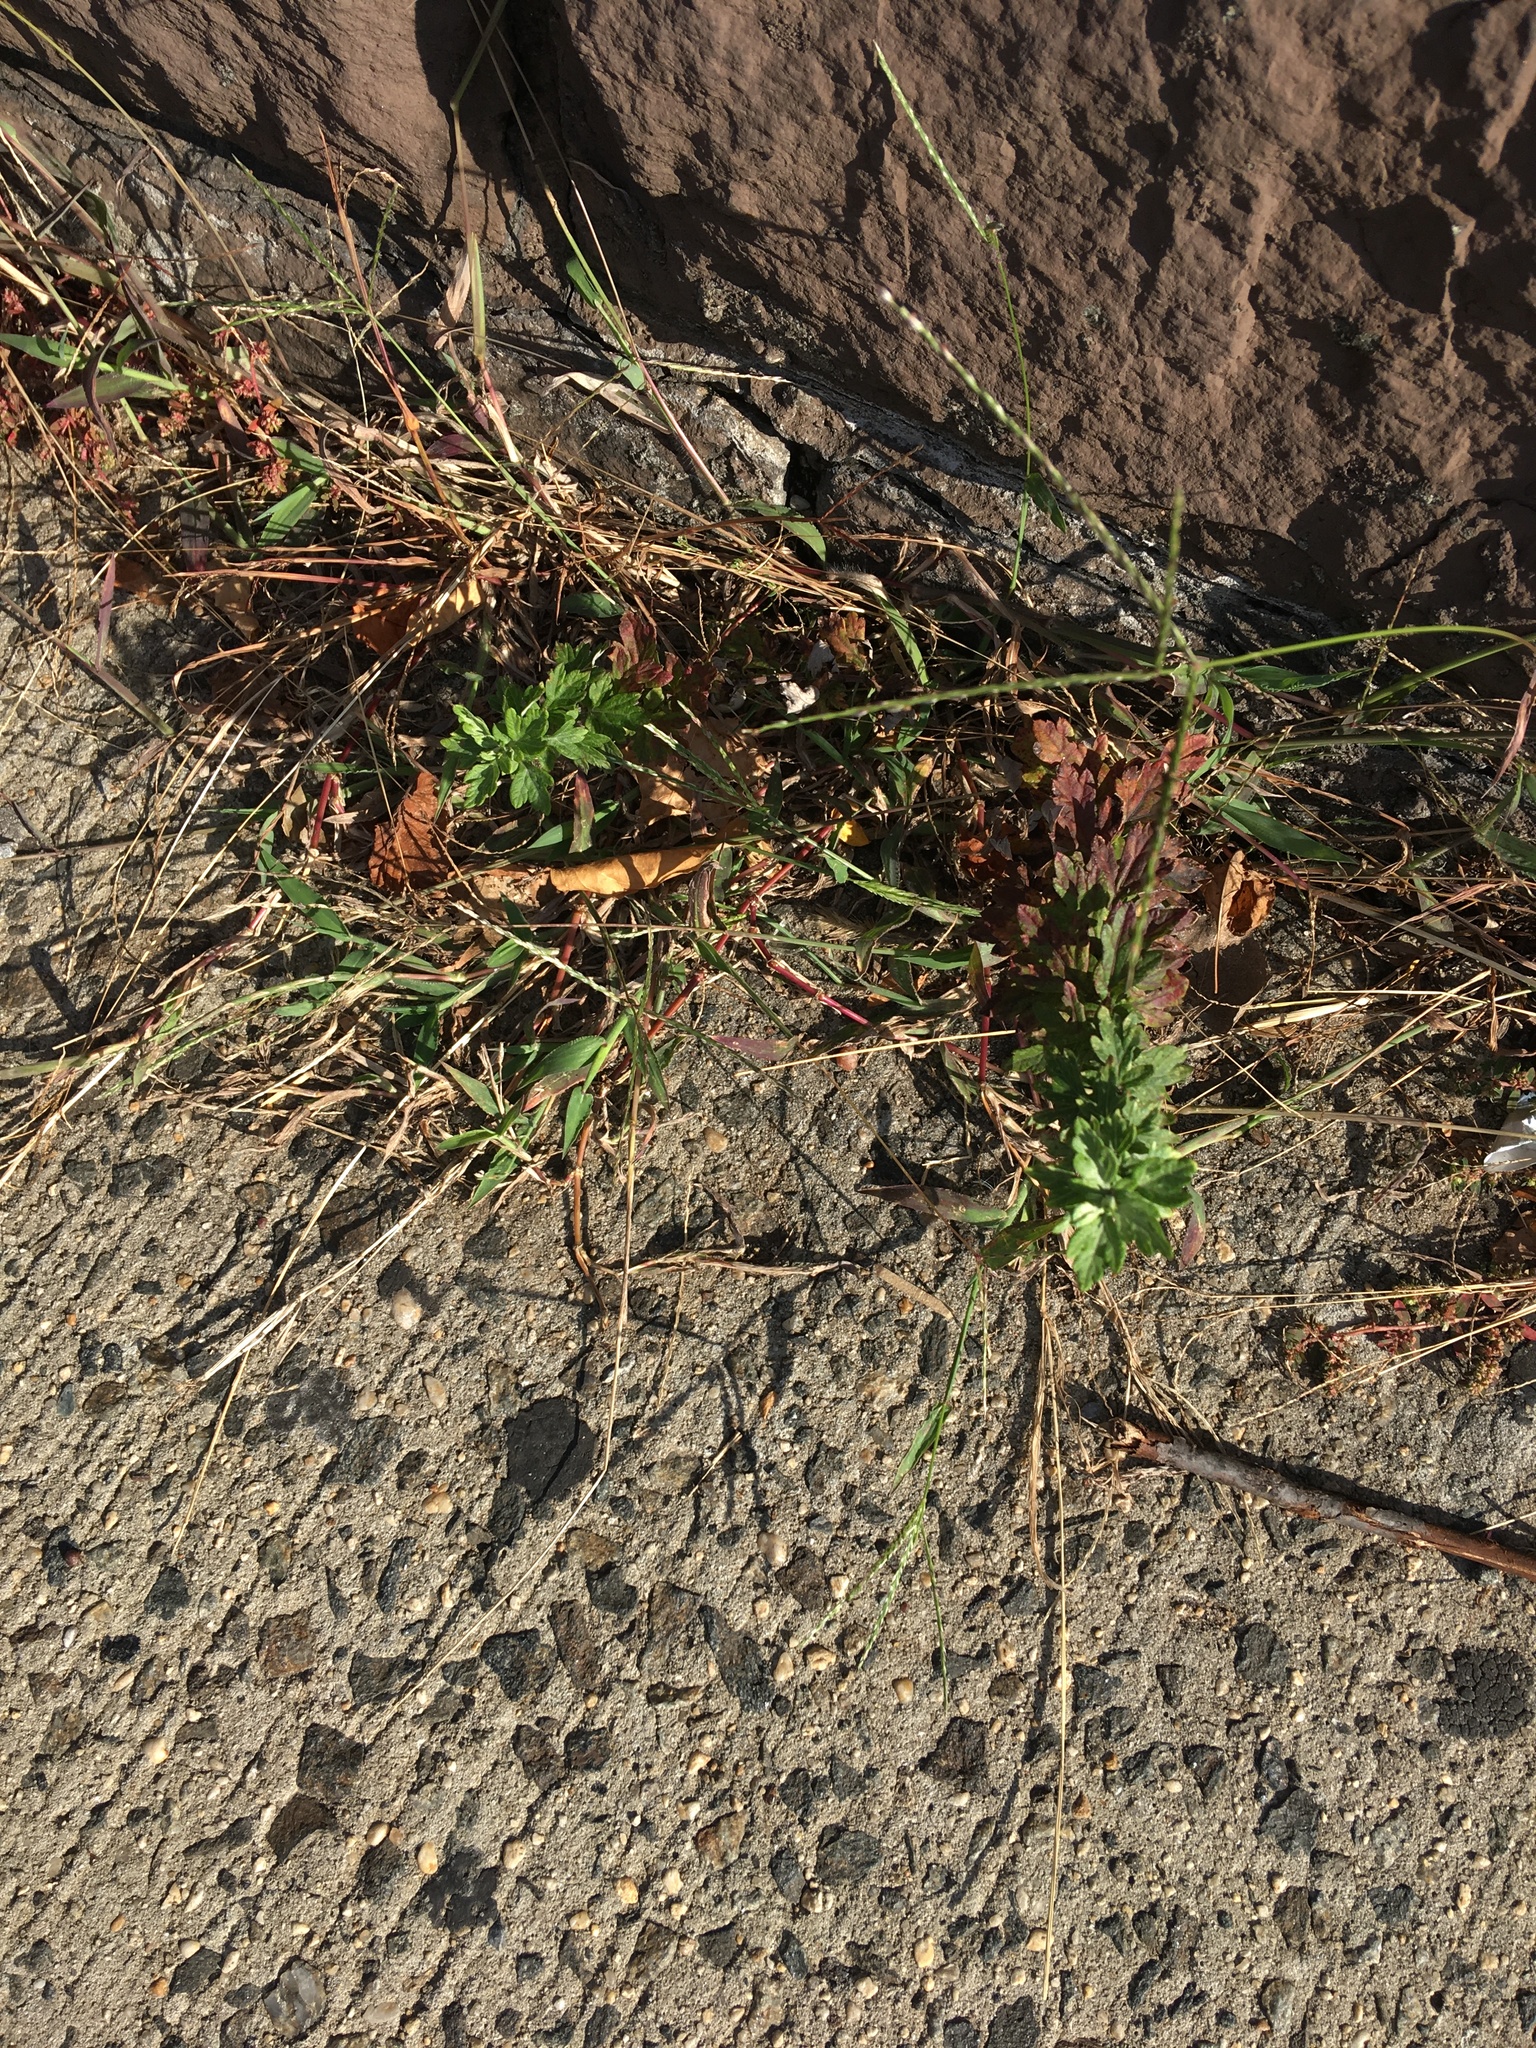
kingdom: Plantae
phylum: Tracheophyta
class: Magnoliopsida
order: Asterales
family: Asteraceae
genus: Artemisia
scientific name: Artemisia vulgaris
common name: Mugwort
